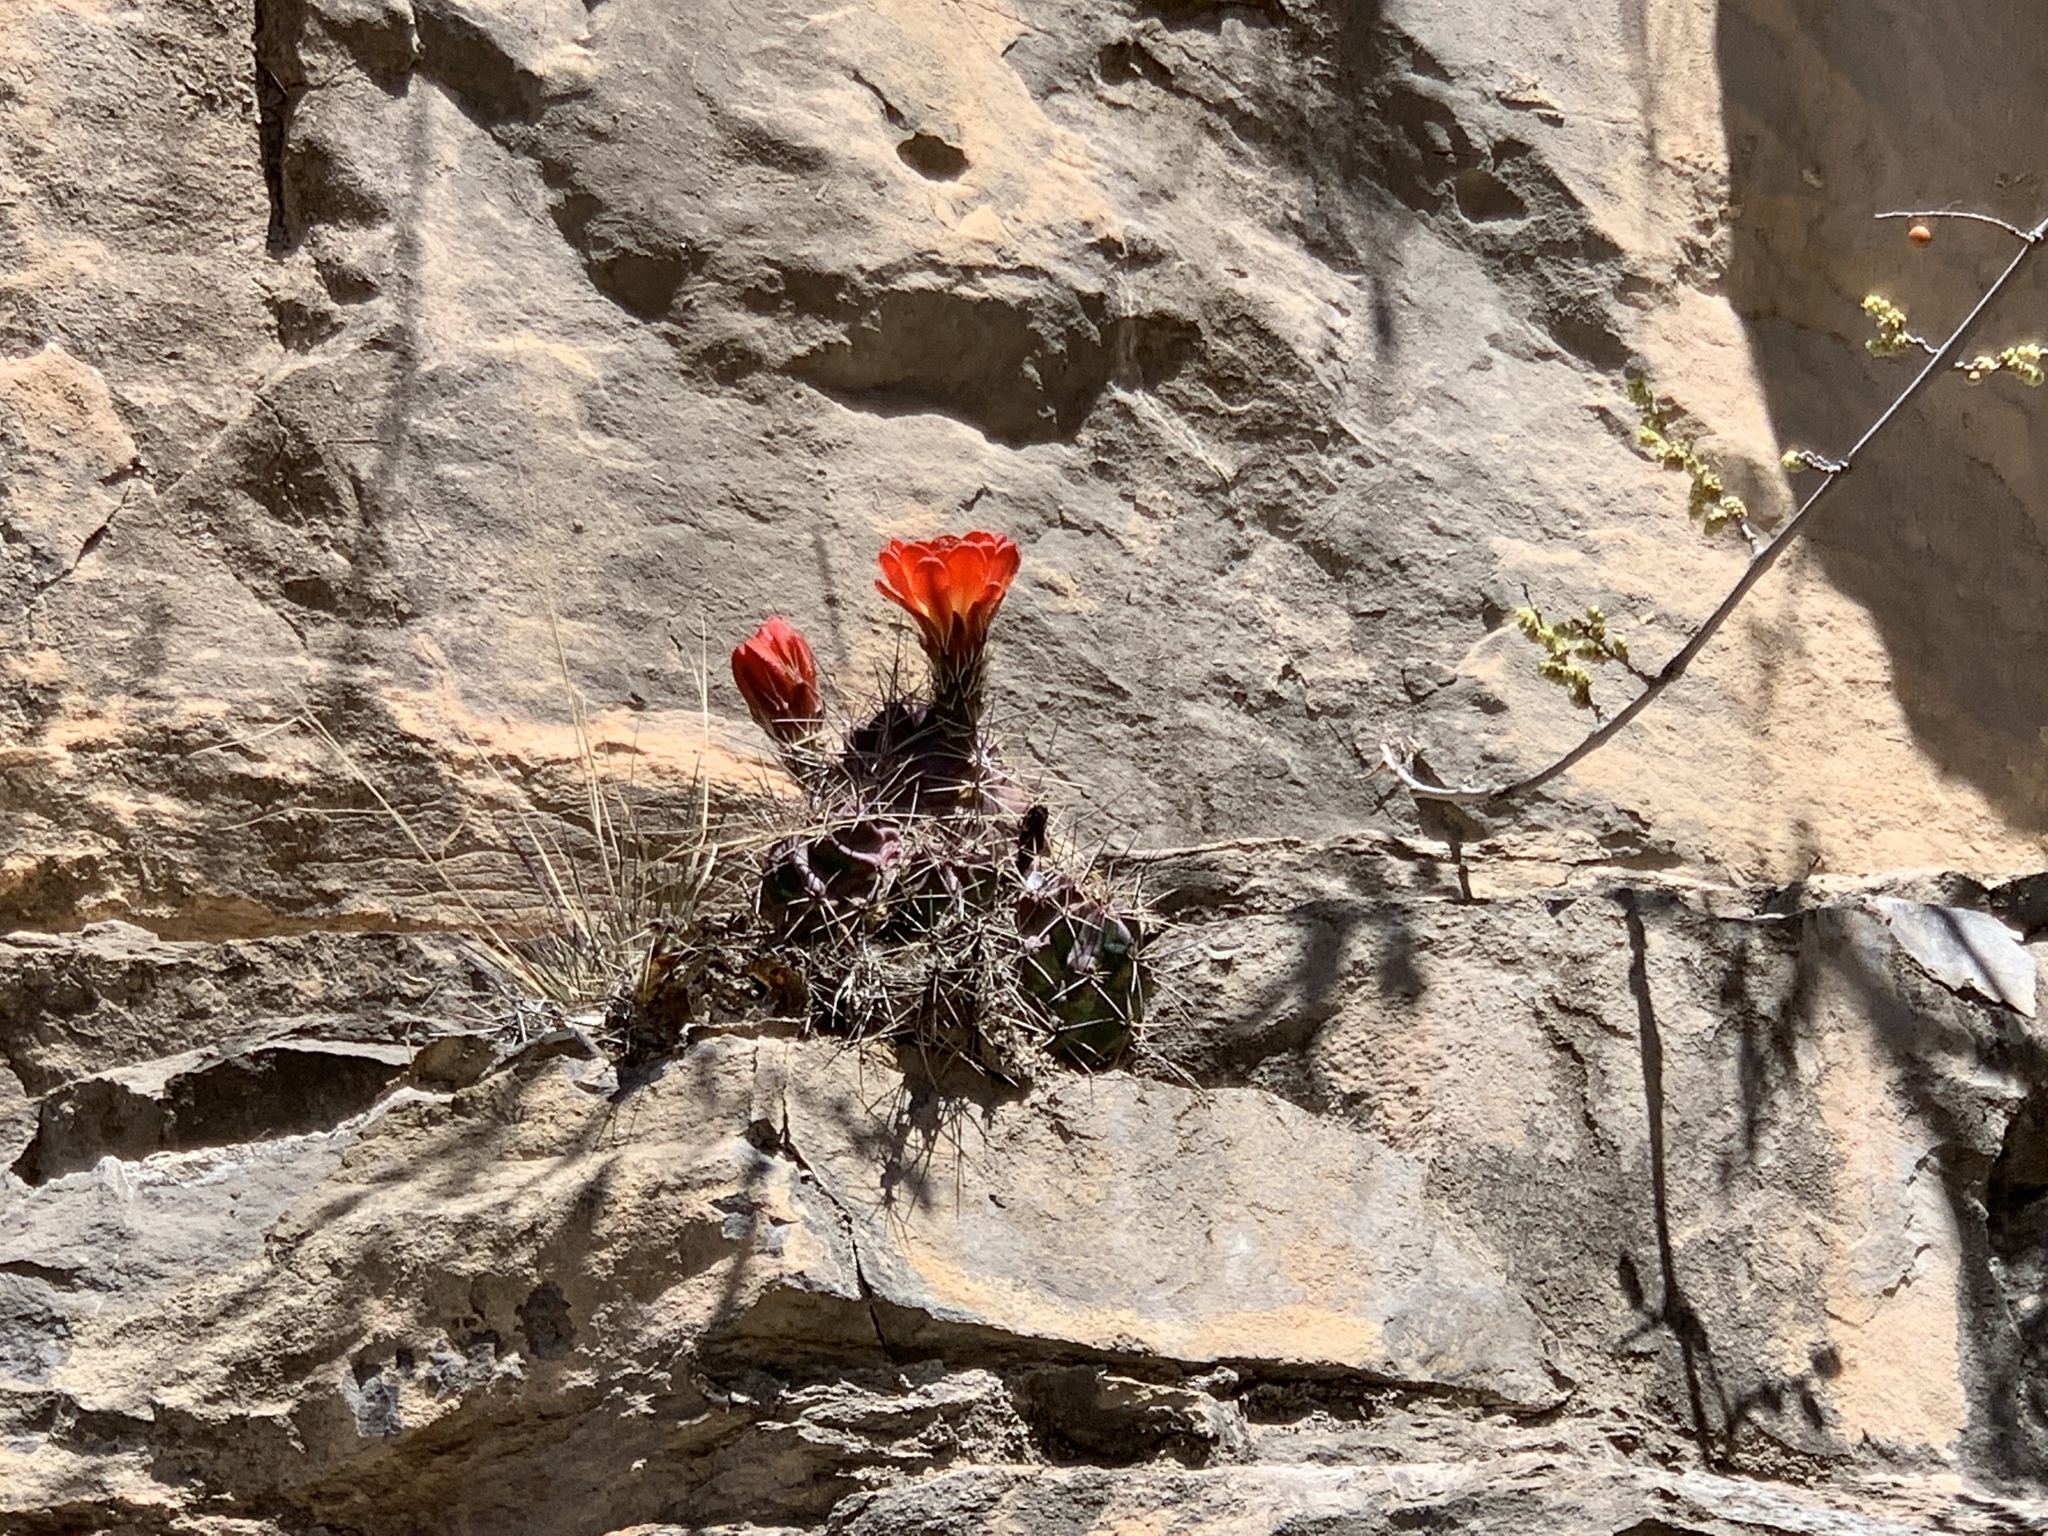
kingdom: Plantae
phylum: Tracheophyta
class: Magnoliopsida
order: Caryophyllales
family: Cactaceae
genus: Echinocereus
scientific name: Echinocereus coccineus
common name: Scarlet hedgehog cactus
